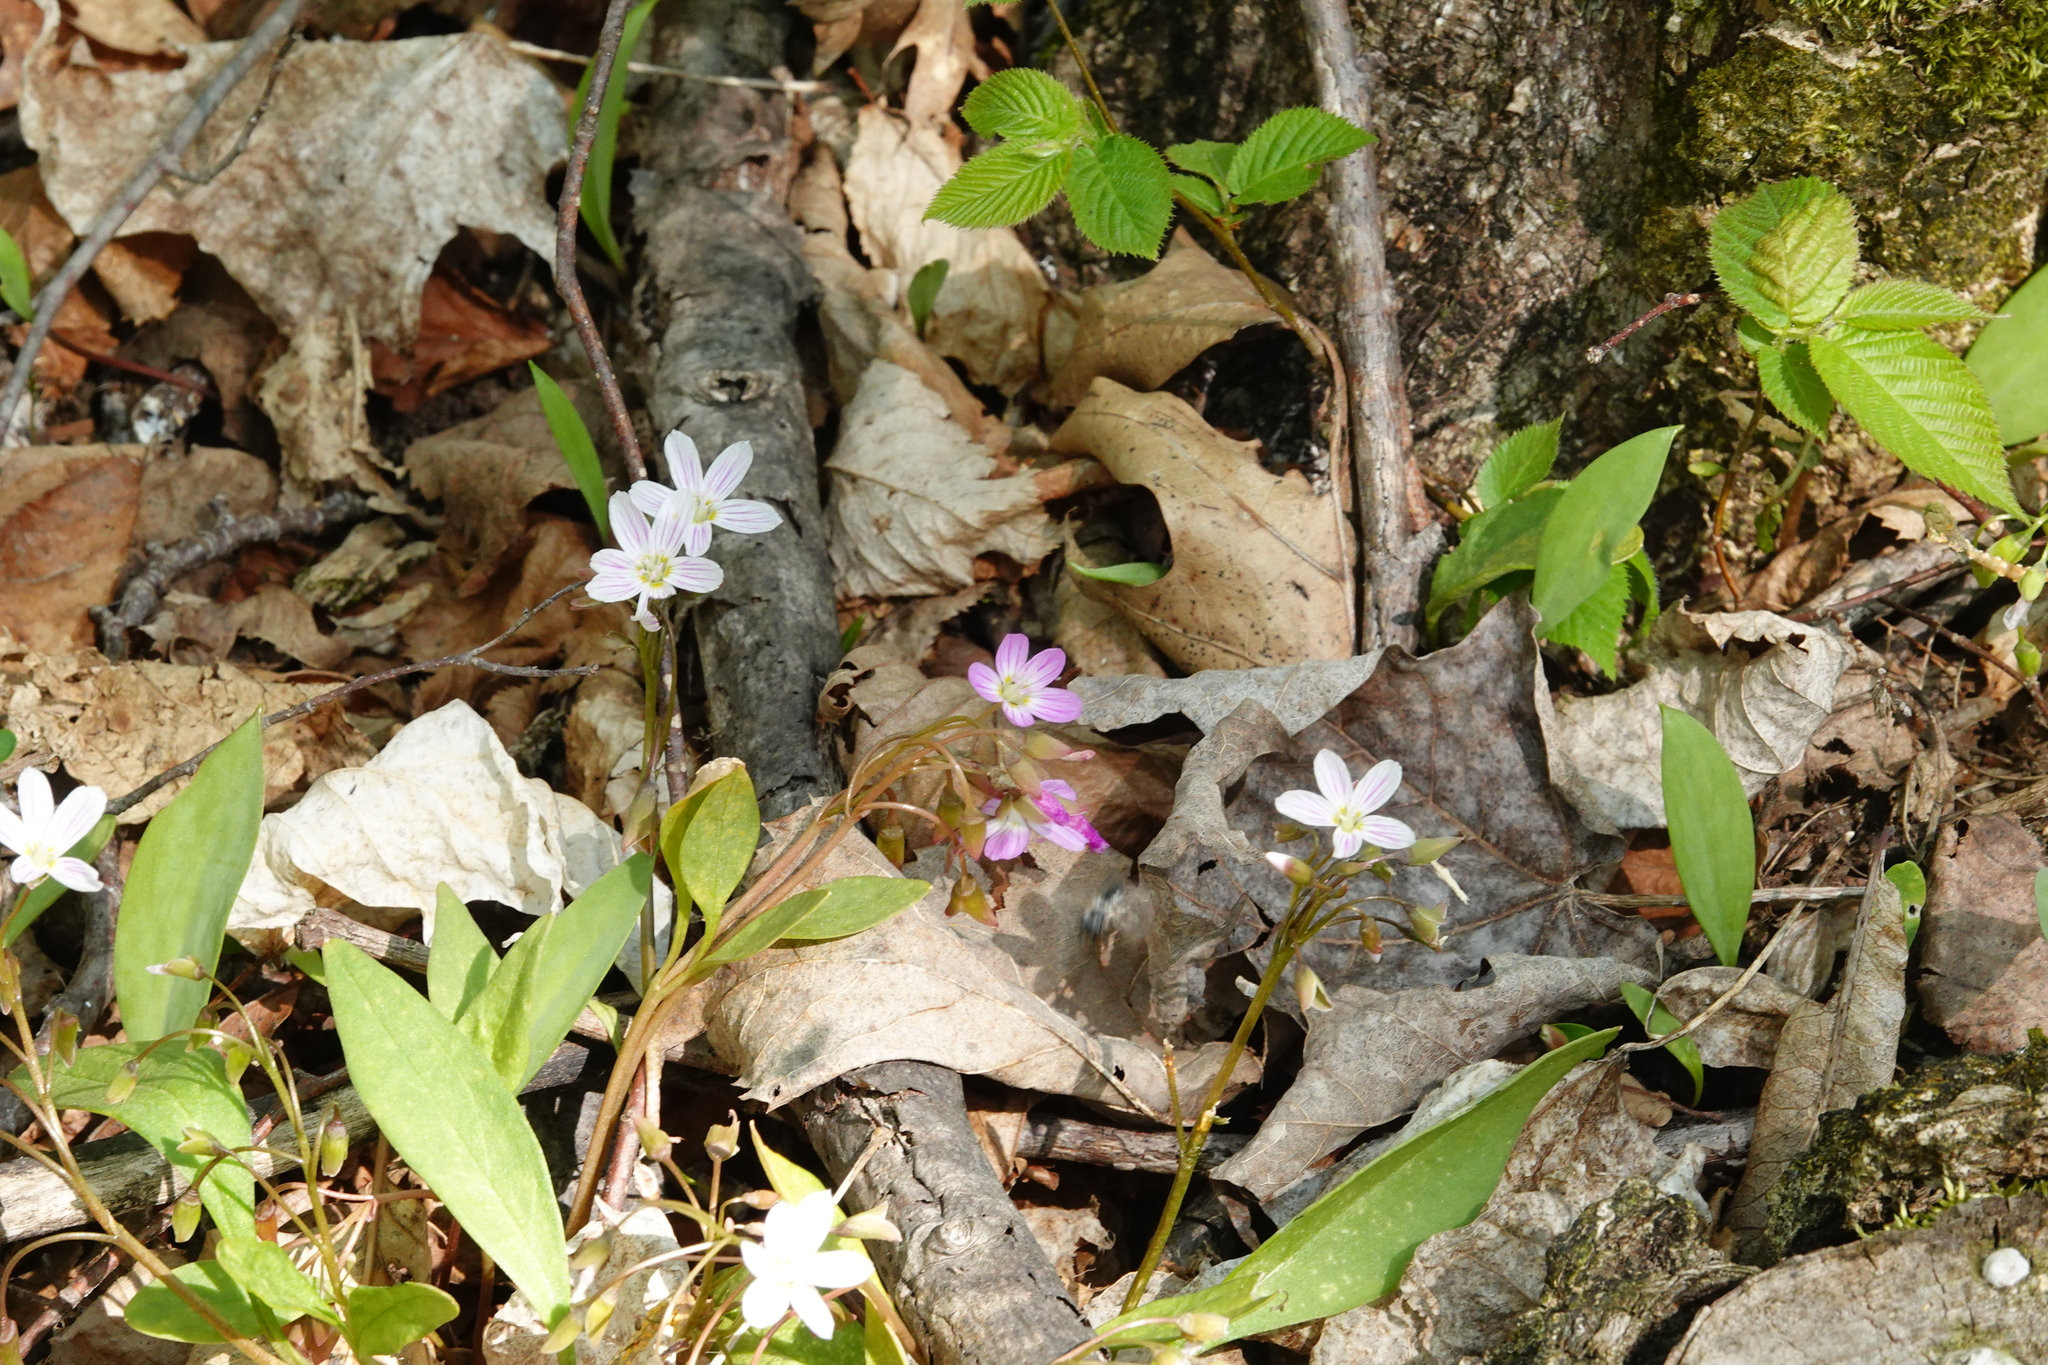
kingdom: Plantae
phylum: Tracheophyta
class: Magnoliopsida
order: Caryophyllales
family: Montiaceae
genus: Claytonia
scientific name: Claytonia caroliniana
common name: Carolina spring beauty
